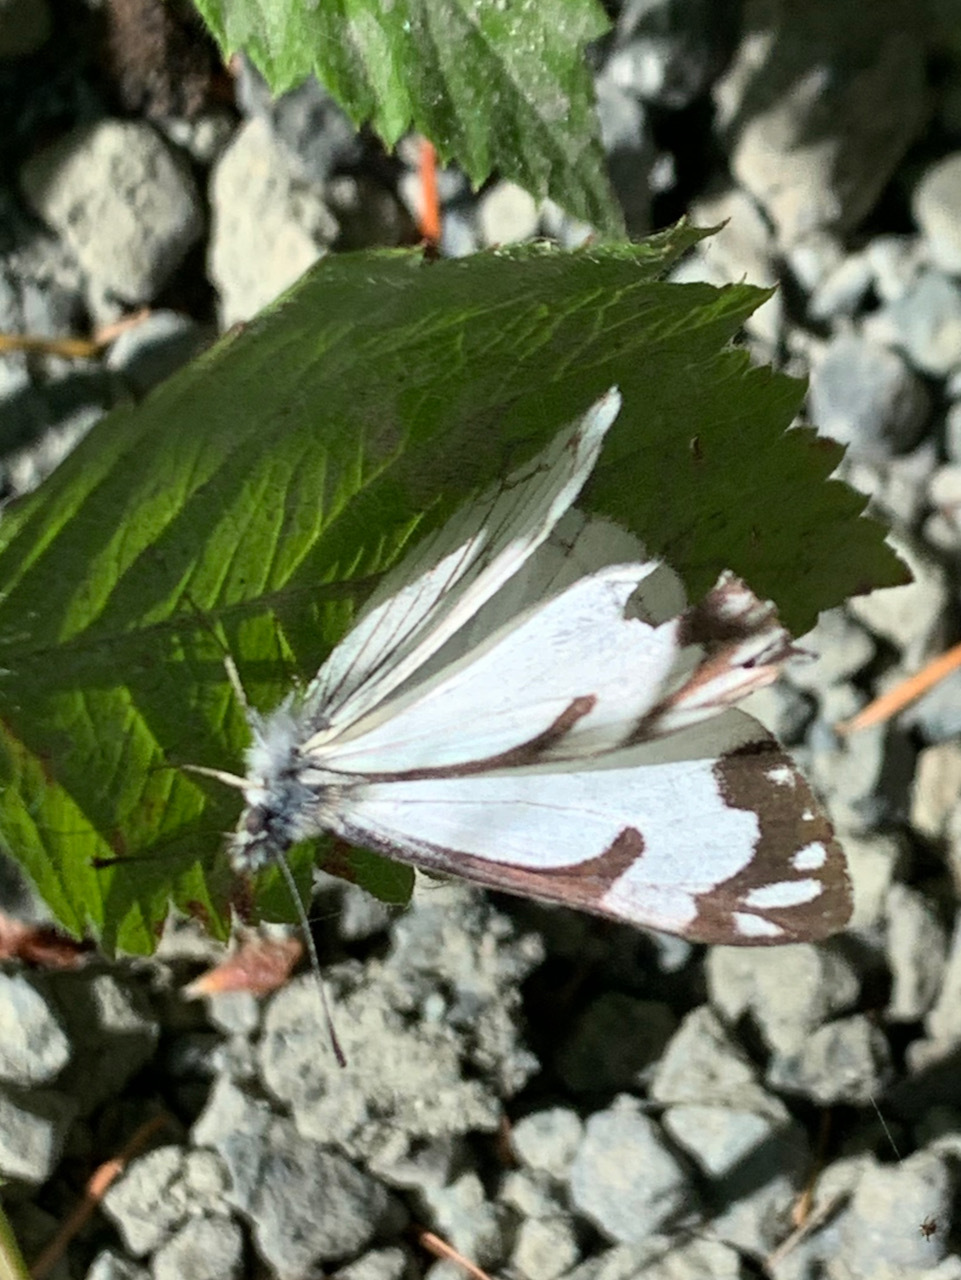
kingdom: Animalia
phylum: Arthropoda
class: Insecta
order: Lepidoptera
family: Pieridae
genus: Neophasia
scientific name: Neophasia menapia
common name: Pine white
